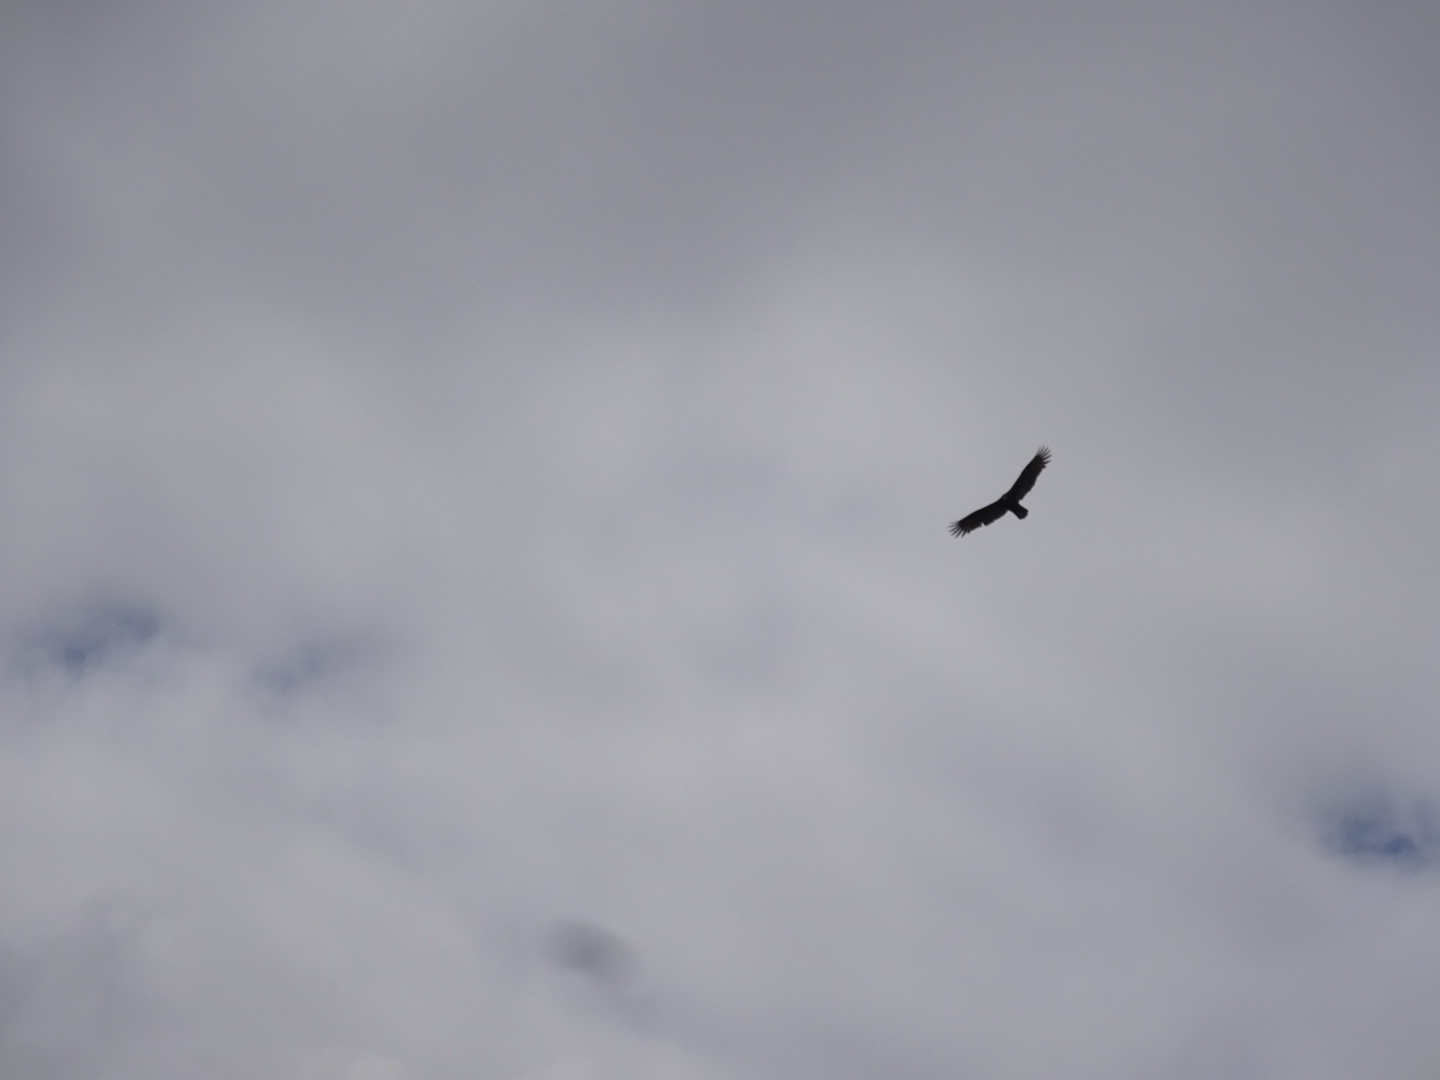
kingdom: Animalia
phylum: Chordata
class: Aves
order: Accipitriformes
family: Cathartidae
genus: Cathartes
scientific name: Cathartes aura
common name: Turkey vulture
